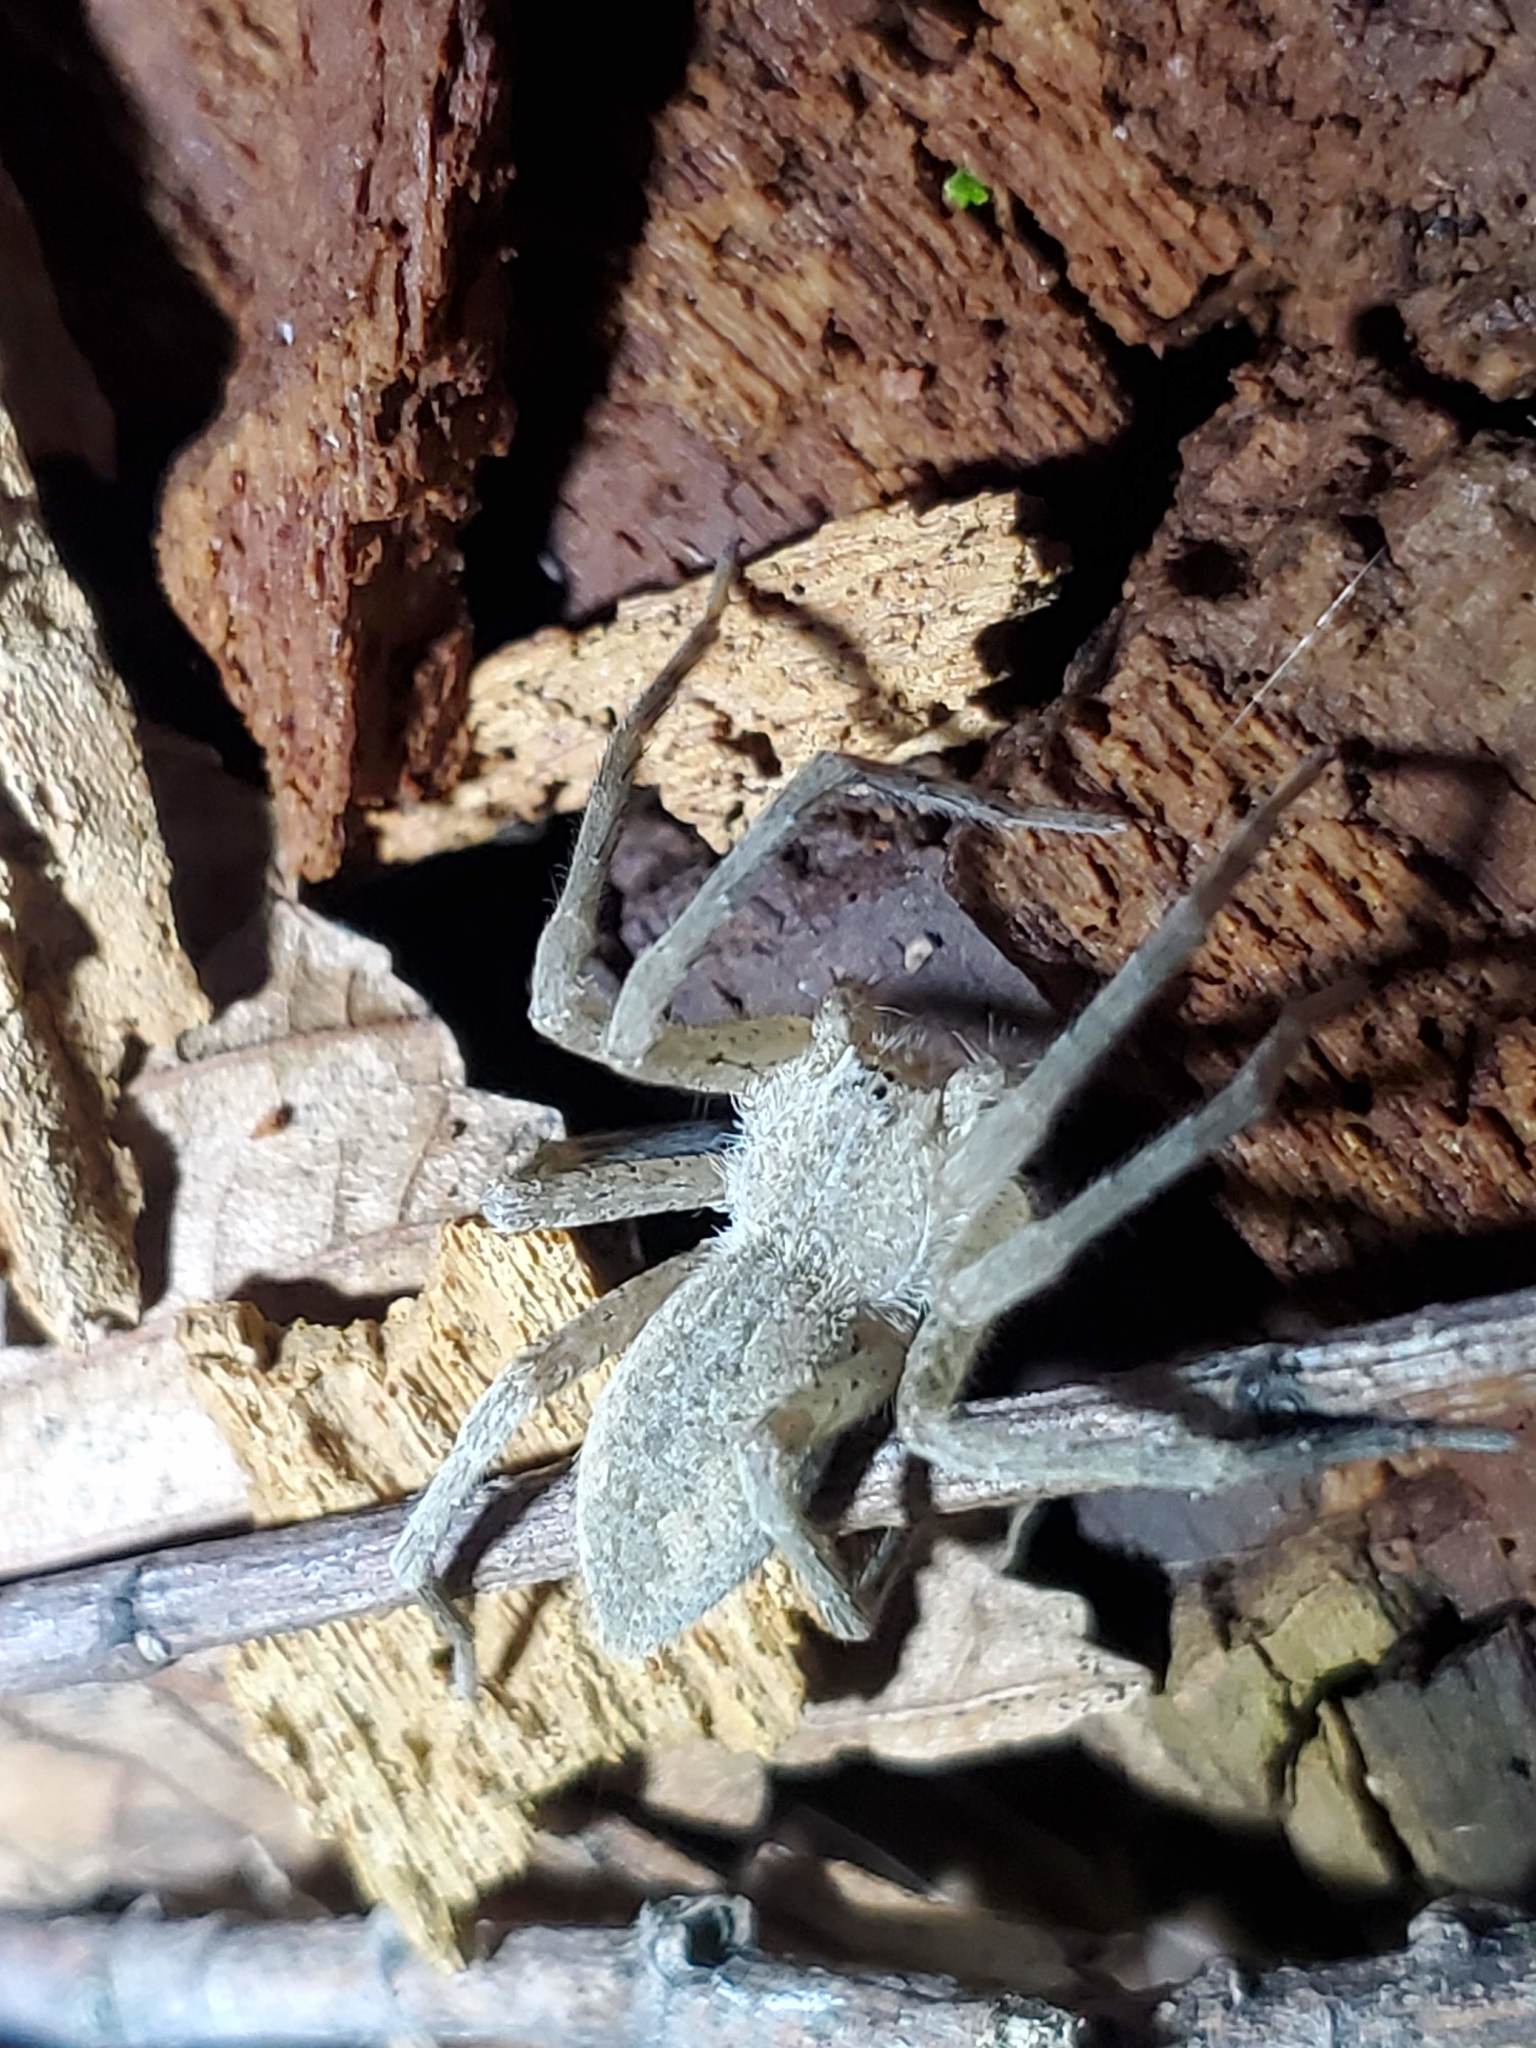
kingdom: Animalia
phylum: Arthropoda
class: Arachnida
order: Araneae
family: Pisauridae
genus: Pisaurina
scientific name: Pisaurina mira
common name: American nursery web spider
